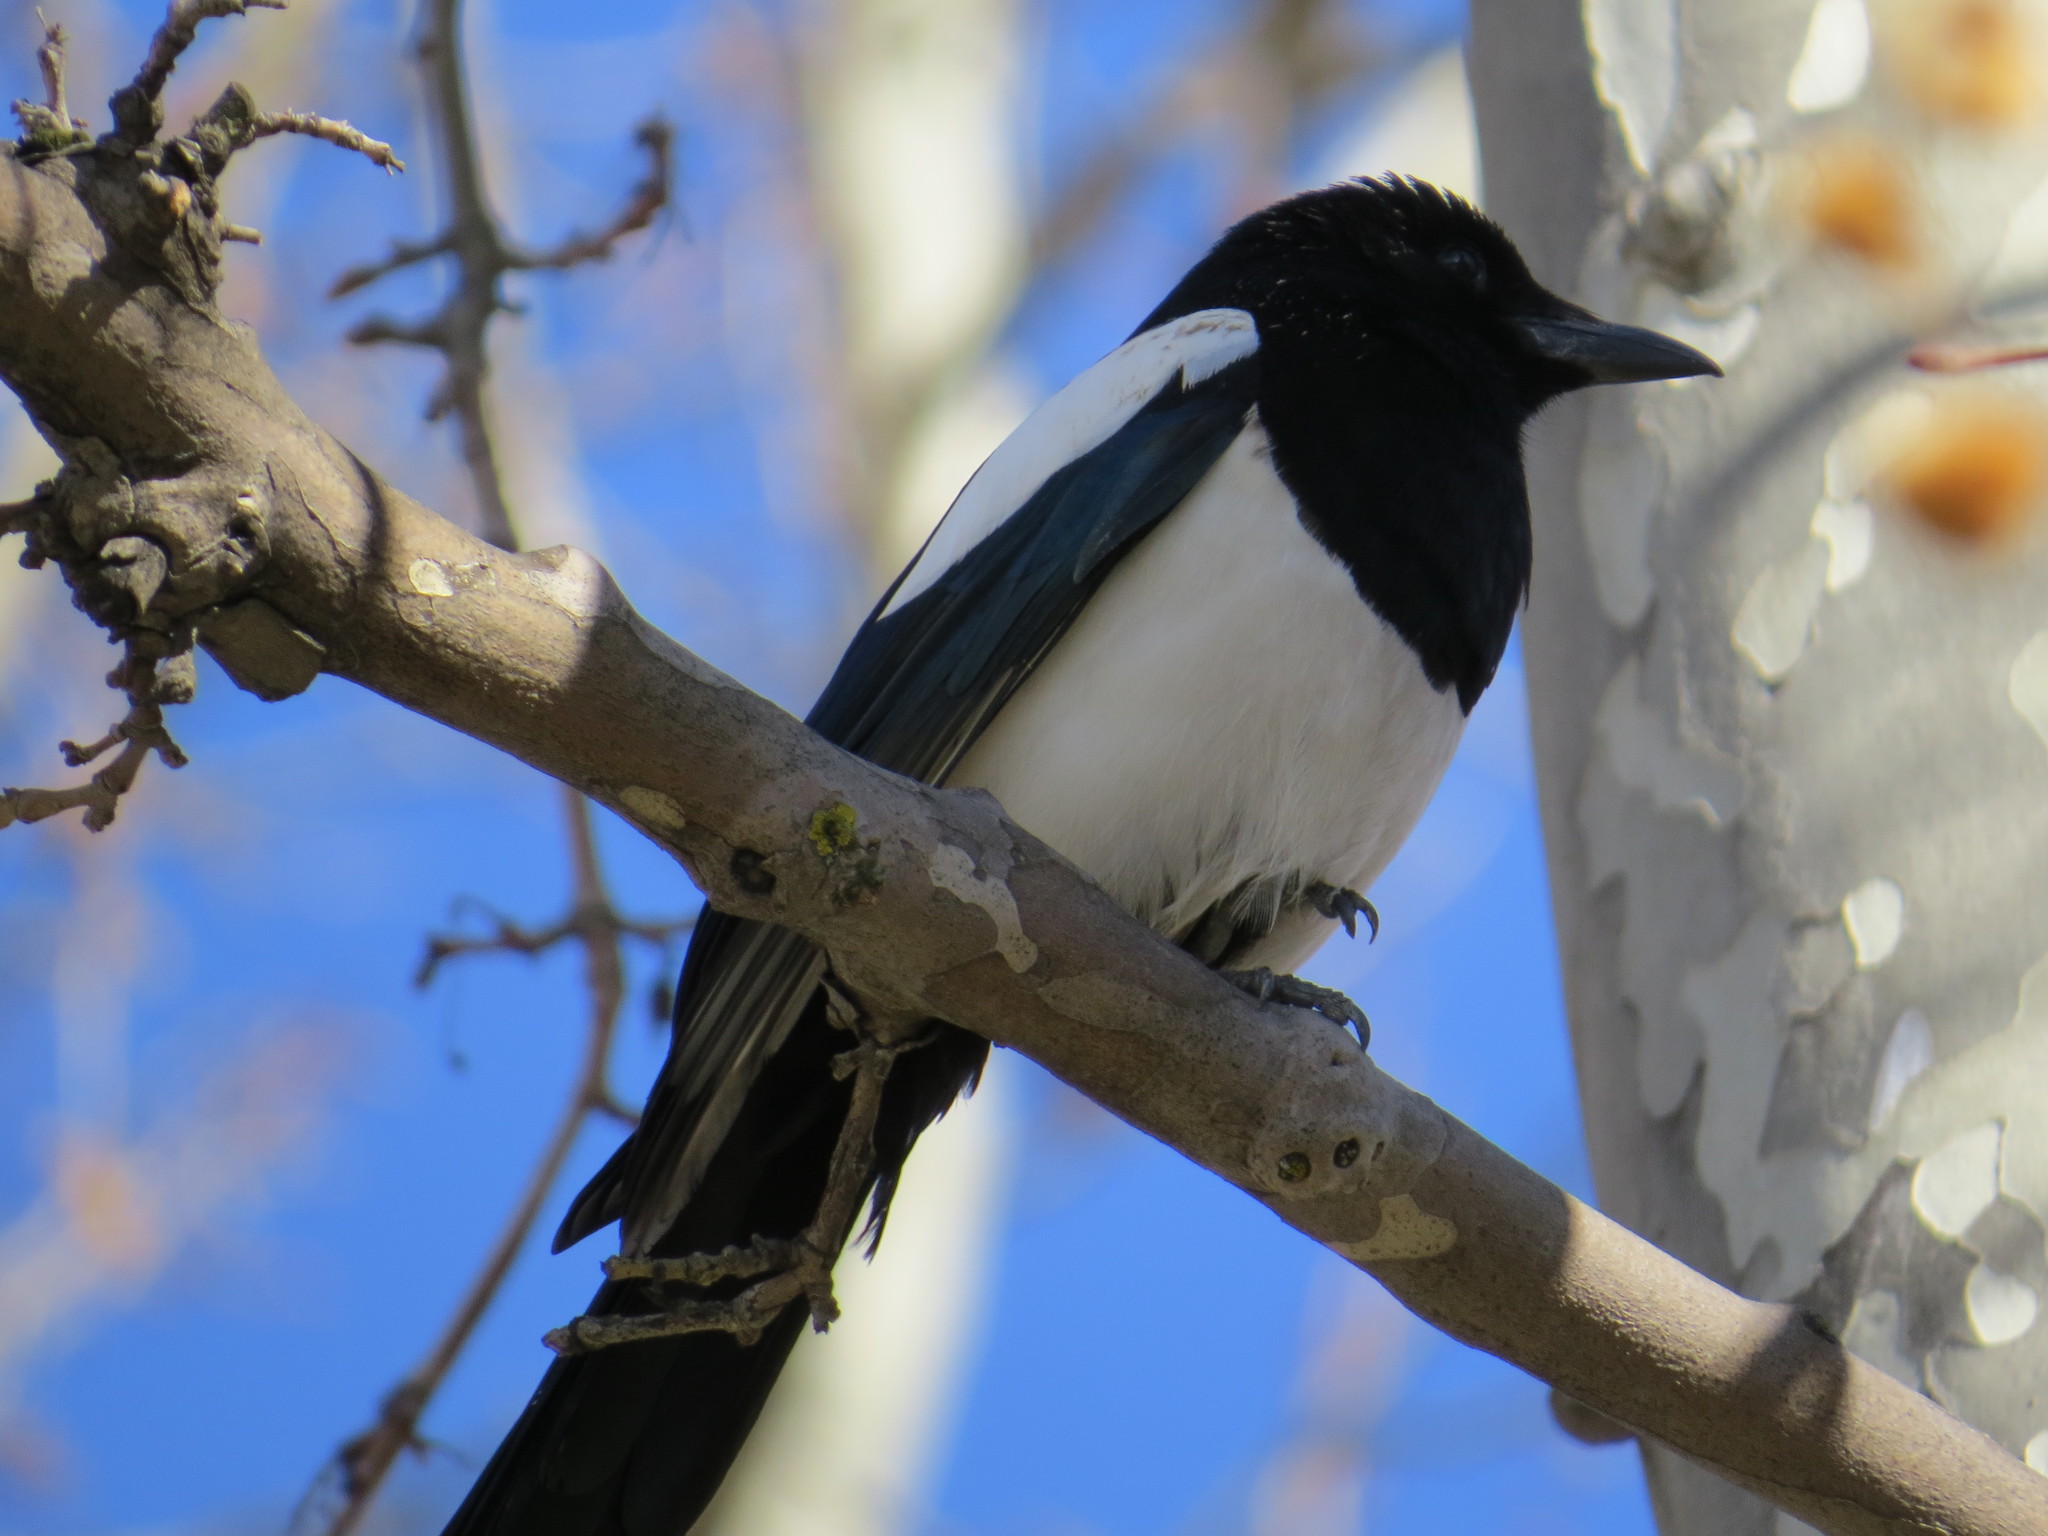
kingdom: Animalia
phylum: Chordata
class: Aves
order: Passeriformes
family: Corvidae
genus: Pica
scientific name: Pica pica
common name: Eurasian magpie
